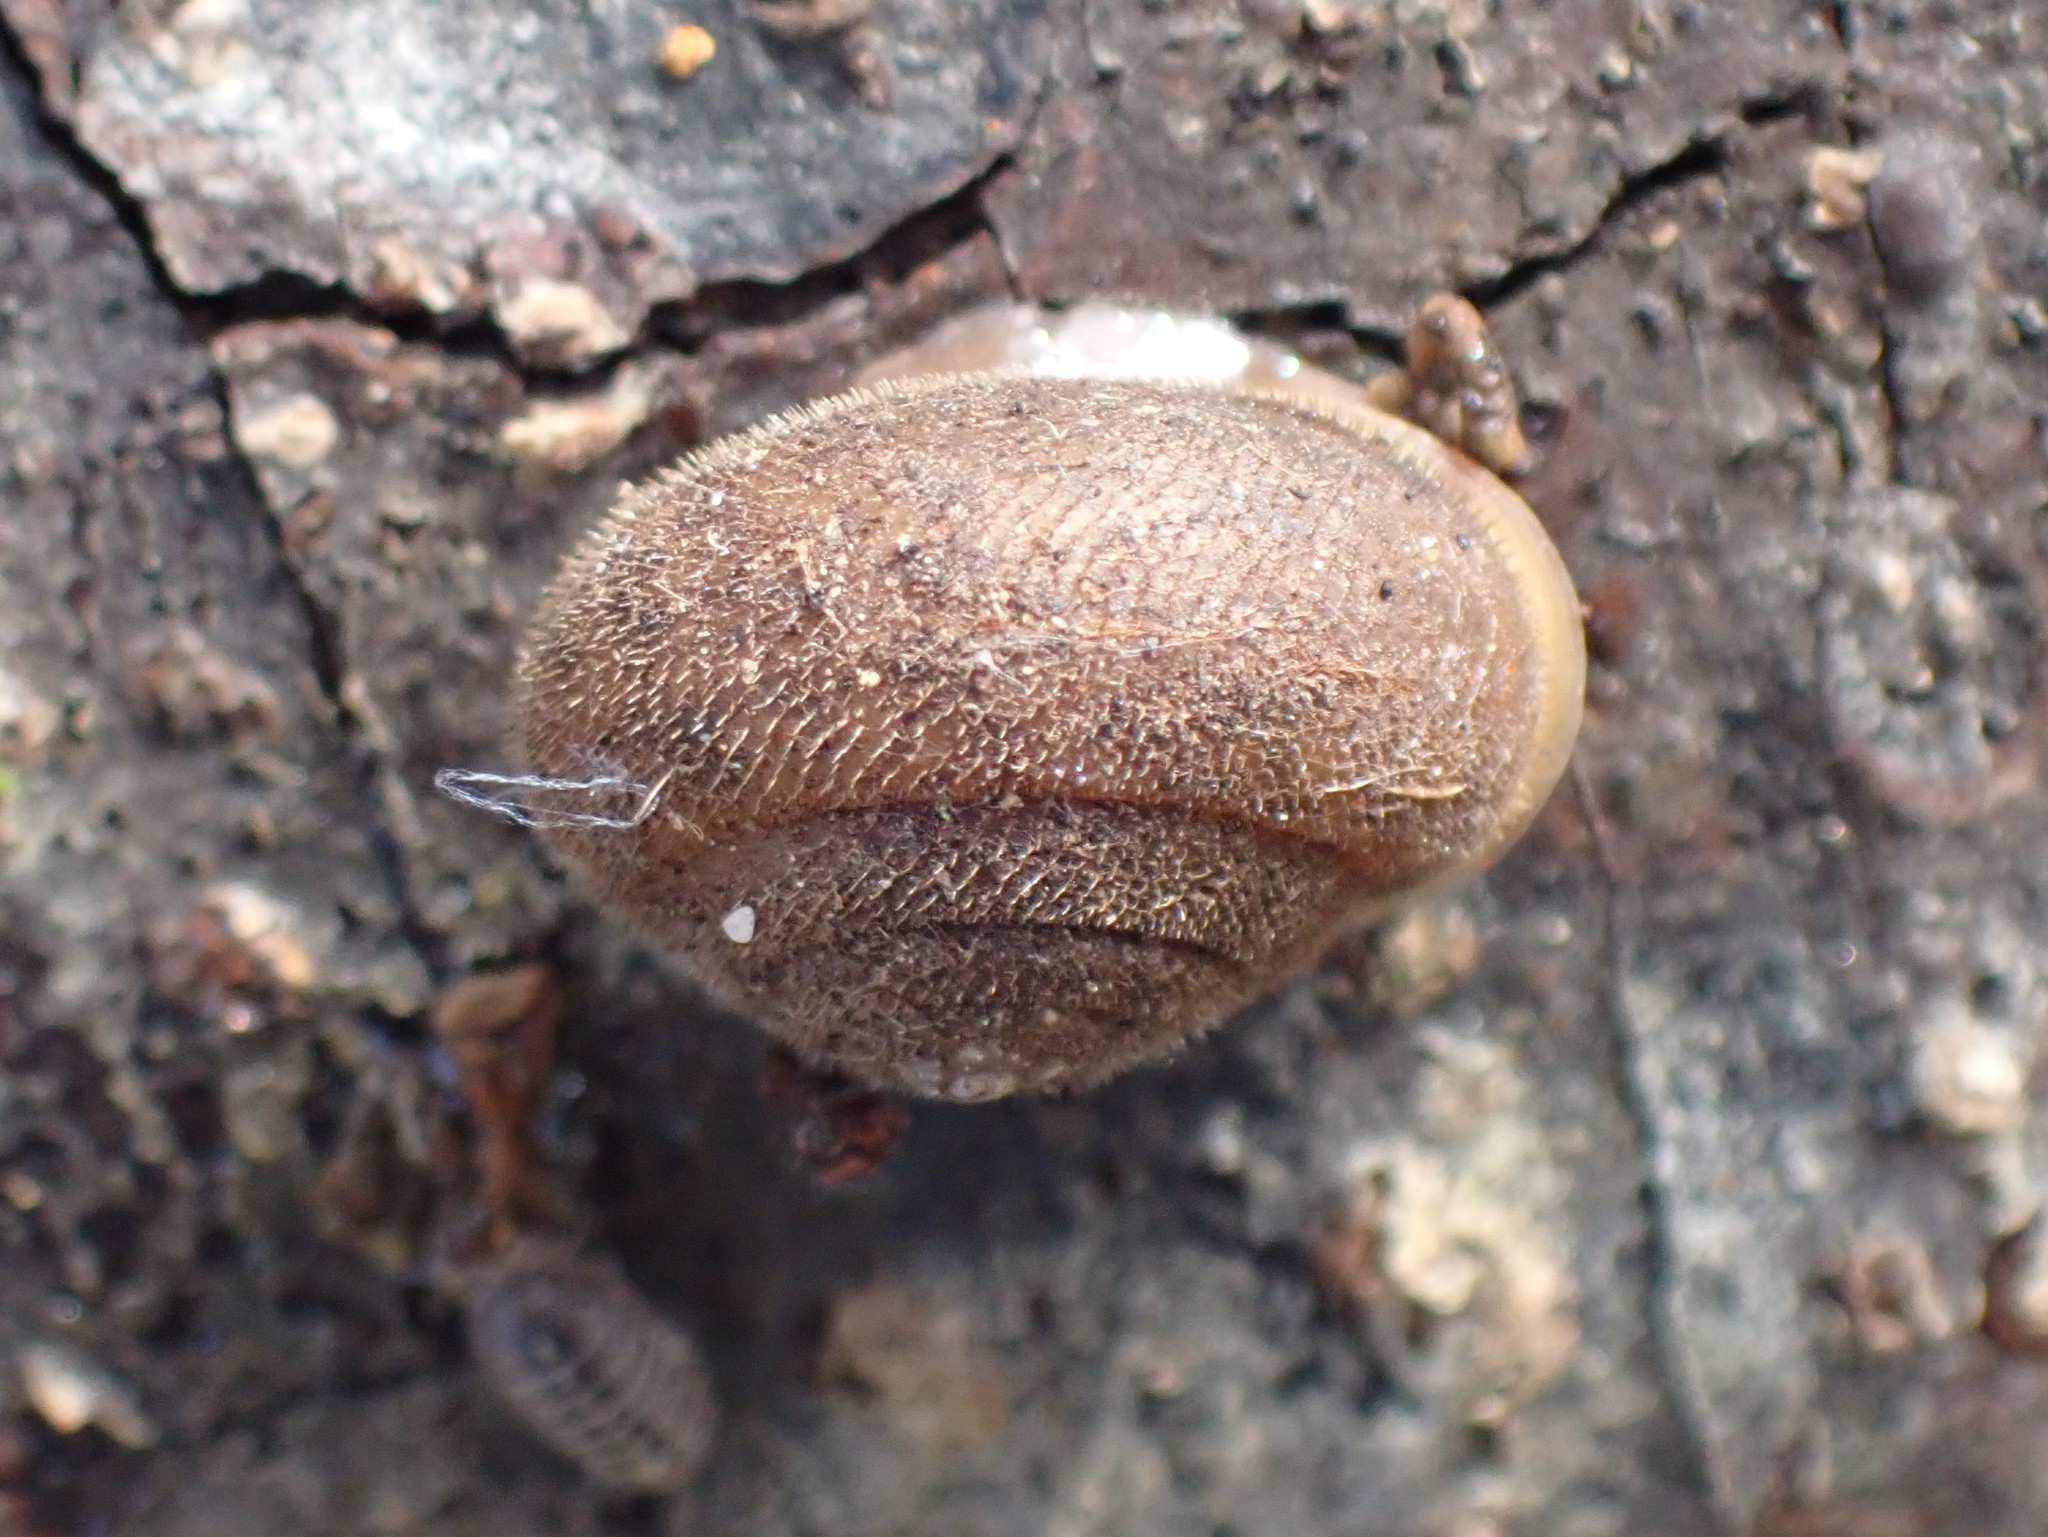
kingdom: Animalia
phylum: Mollusca
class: Gastropoda
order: Stylommatophora
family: Polygyridae
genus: Vespericola
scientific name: Vespericola columbianus
